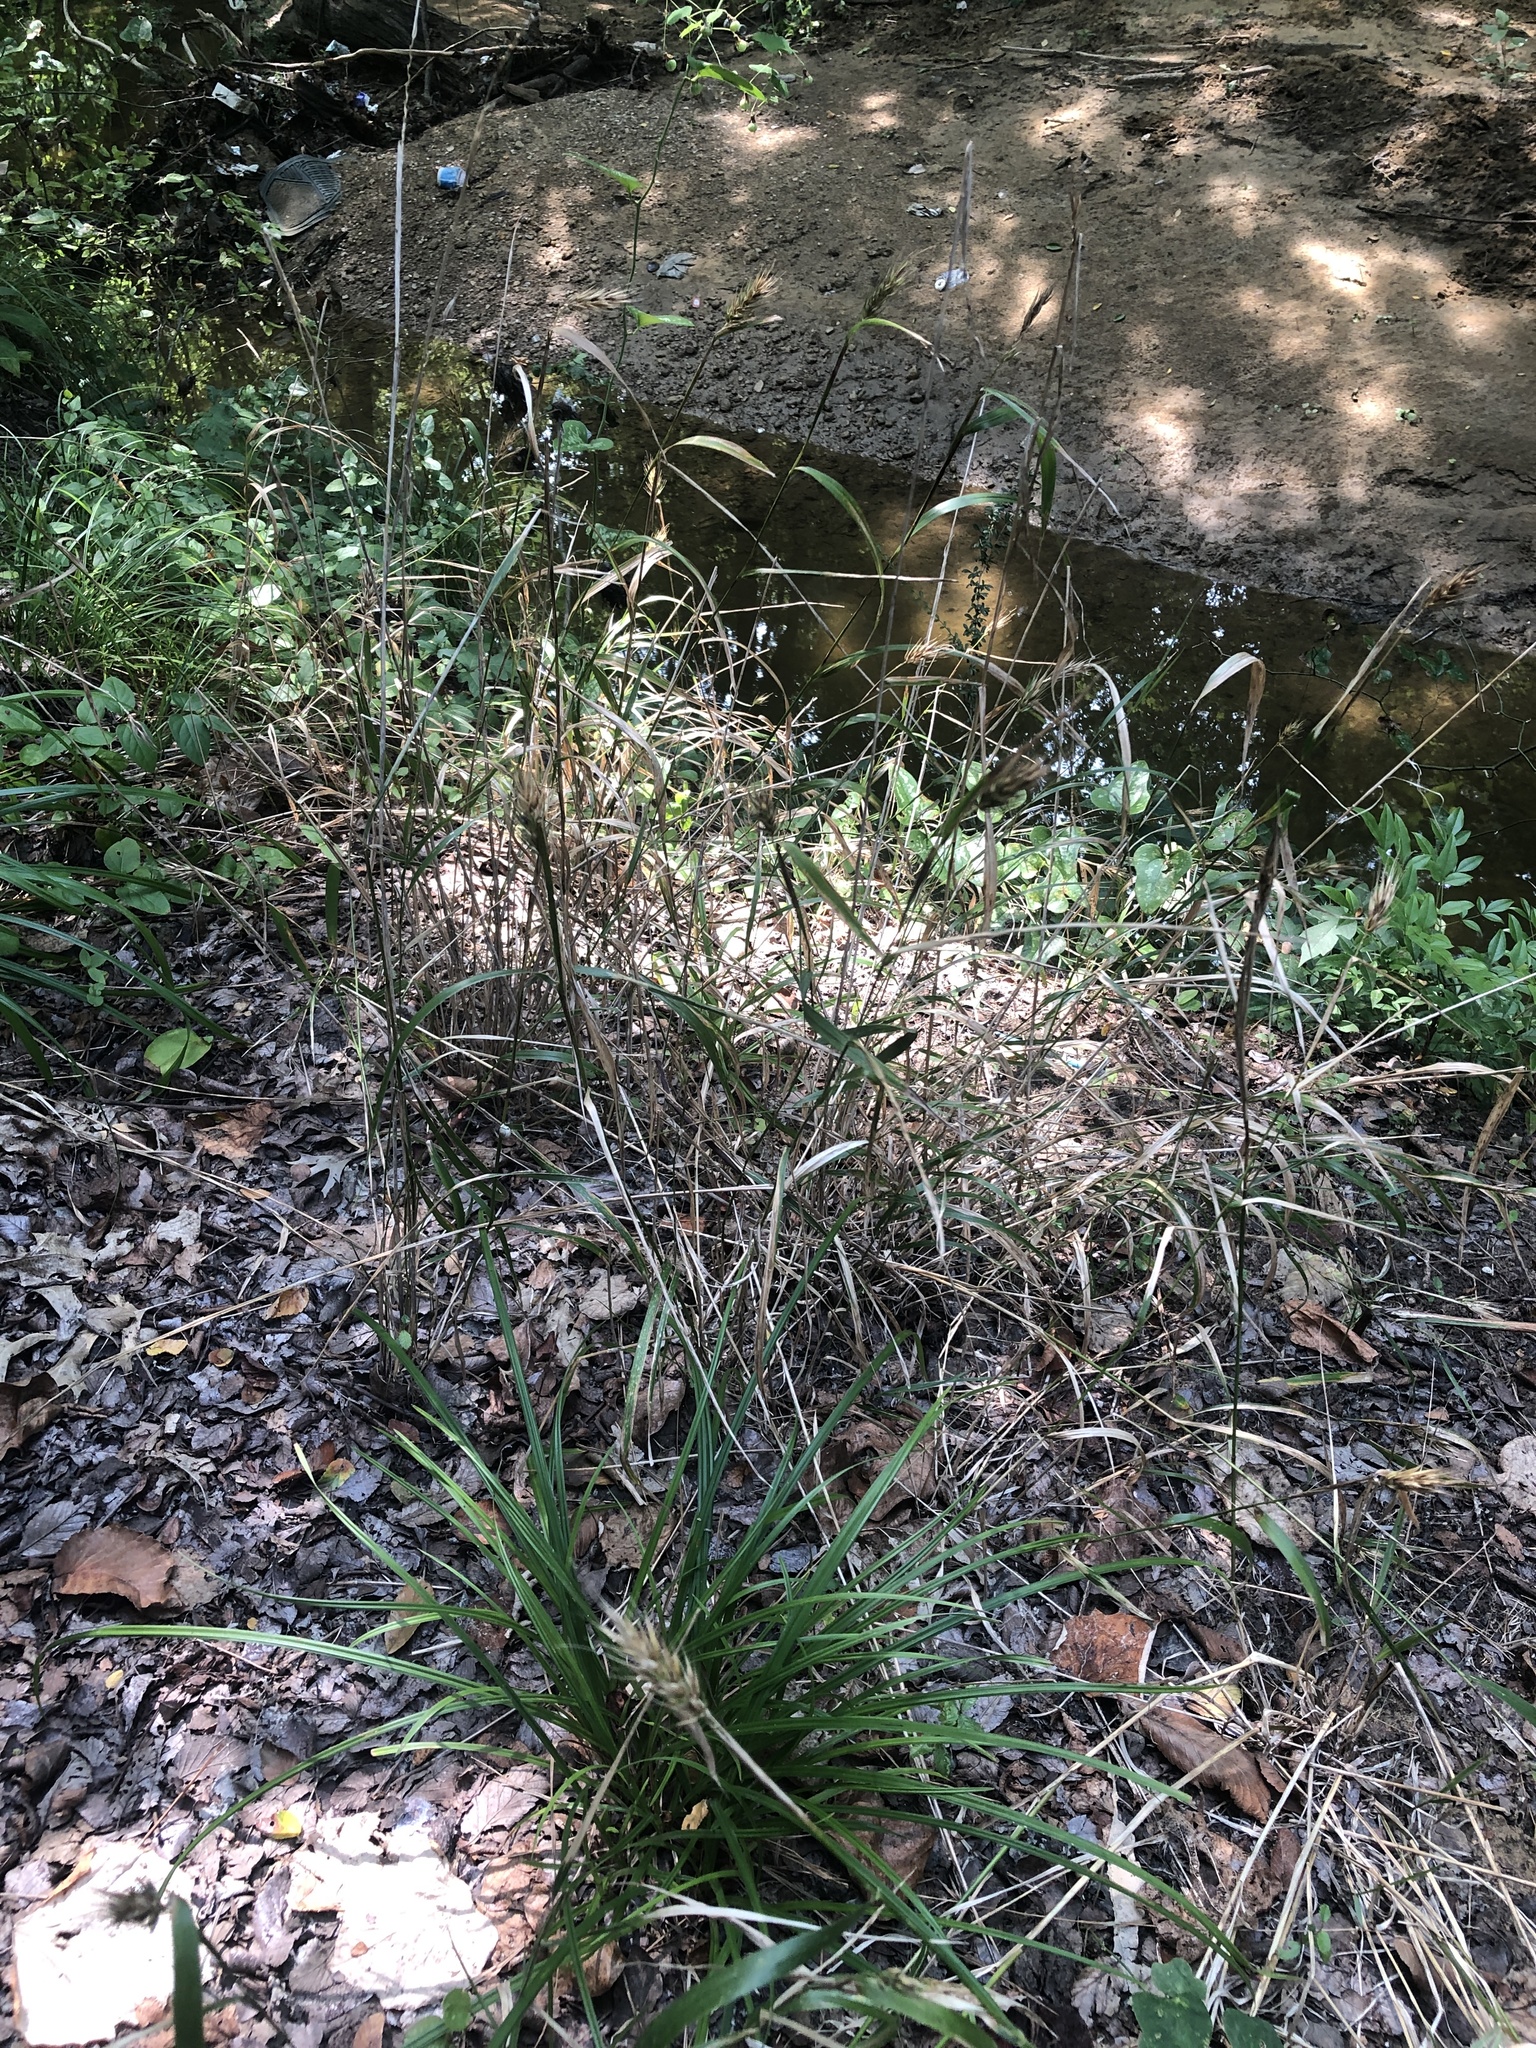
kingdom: Plantae
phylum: Tracheophyta
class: Liliopsida
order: Poales
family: Poaceae
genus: Elymus
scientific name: Elymus virginicus
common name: Common eastern wildrye
